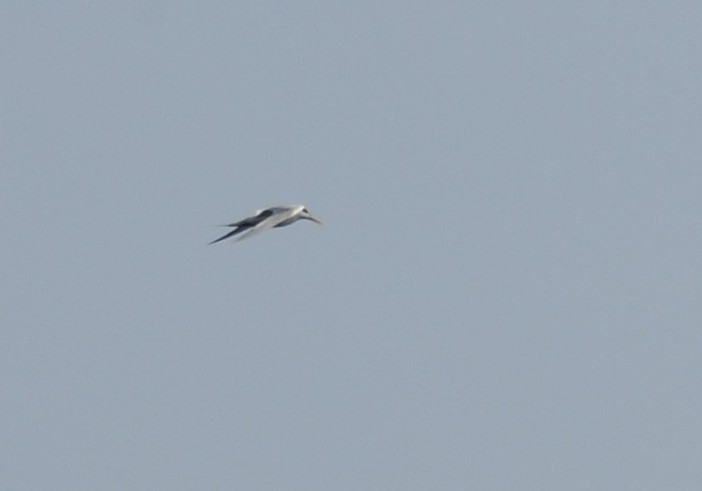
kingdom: Animalia
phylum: Chordata
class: Aves
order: Charadriiformes
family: Laridae
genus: Thalasseus
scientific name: Thalasseus bergii
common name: Greater crested tern
